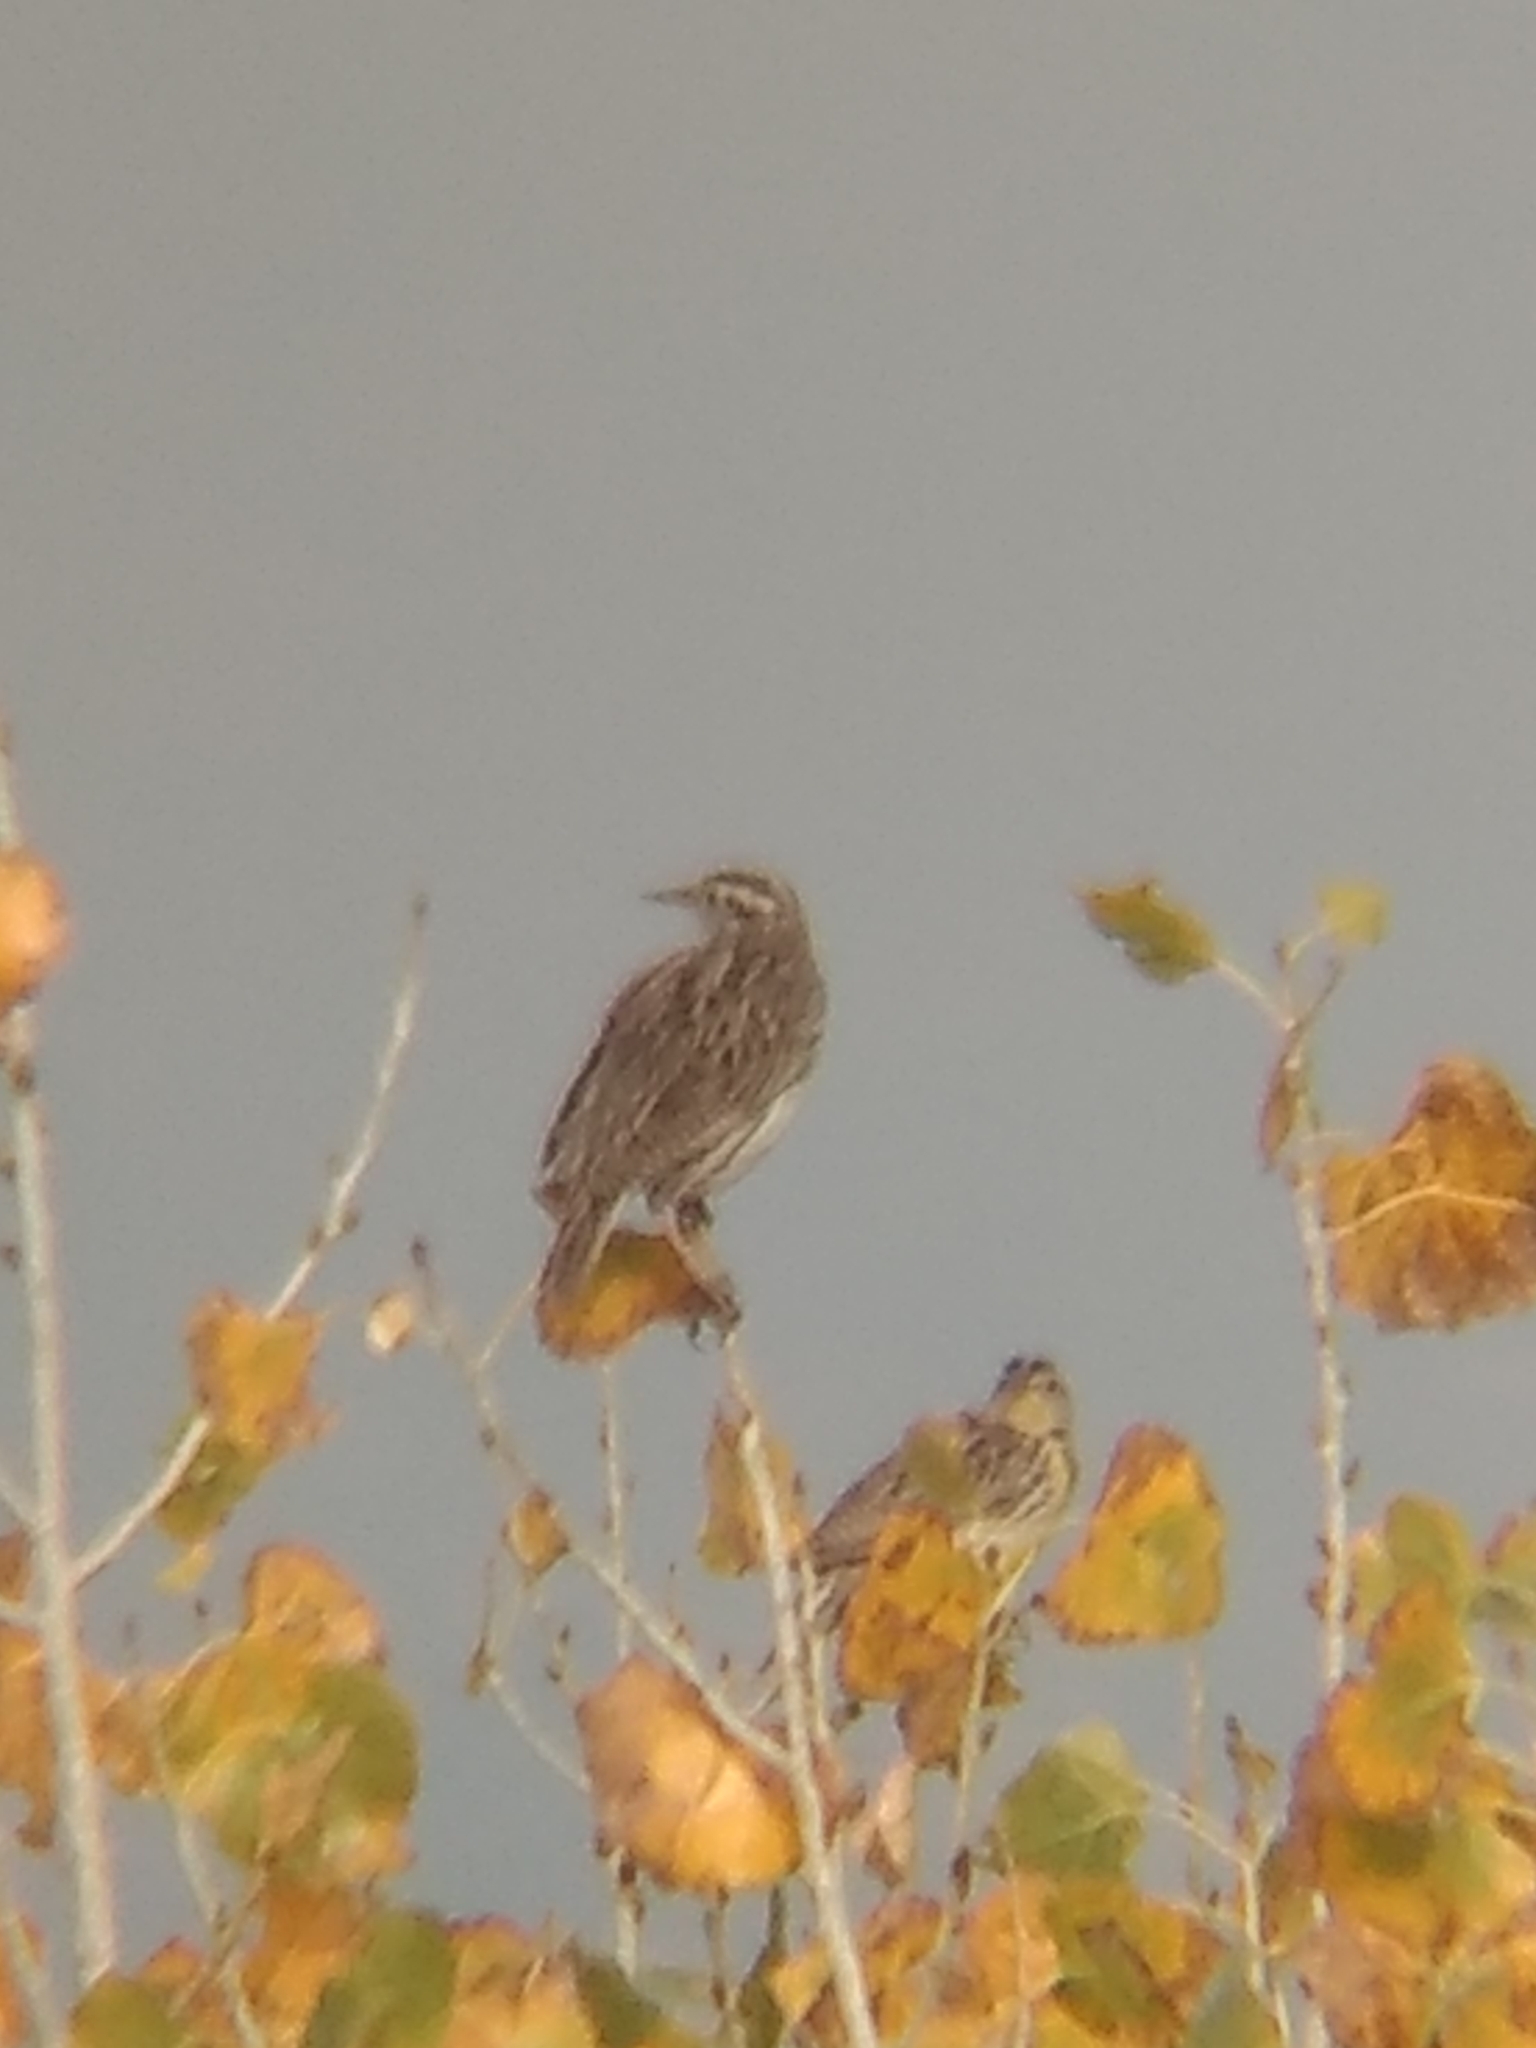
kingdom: Animalia
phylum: Chordata
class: Aves
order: Passeriformes
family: Icteridae
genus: Sturnella
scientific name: Sturnella neglecta
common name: Western meadowlark
